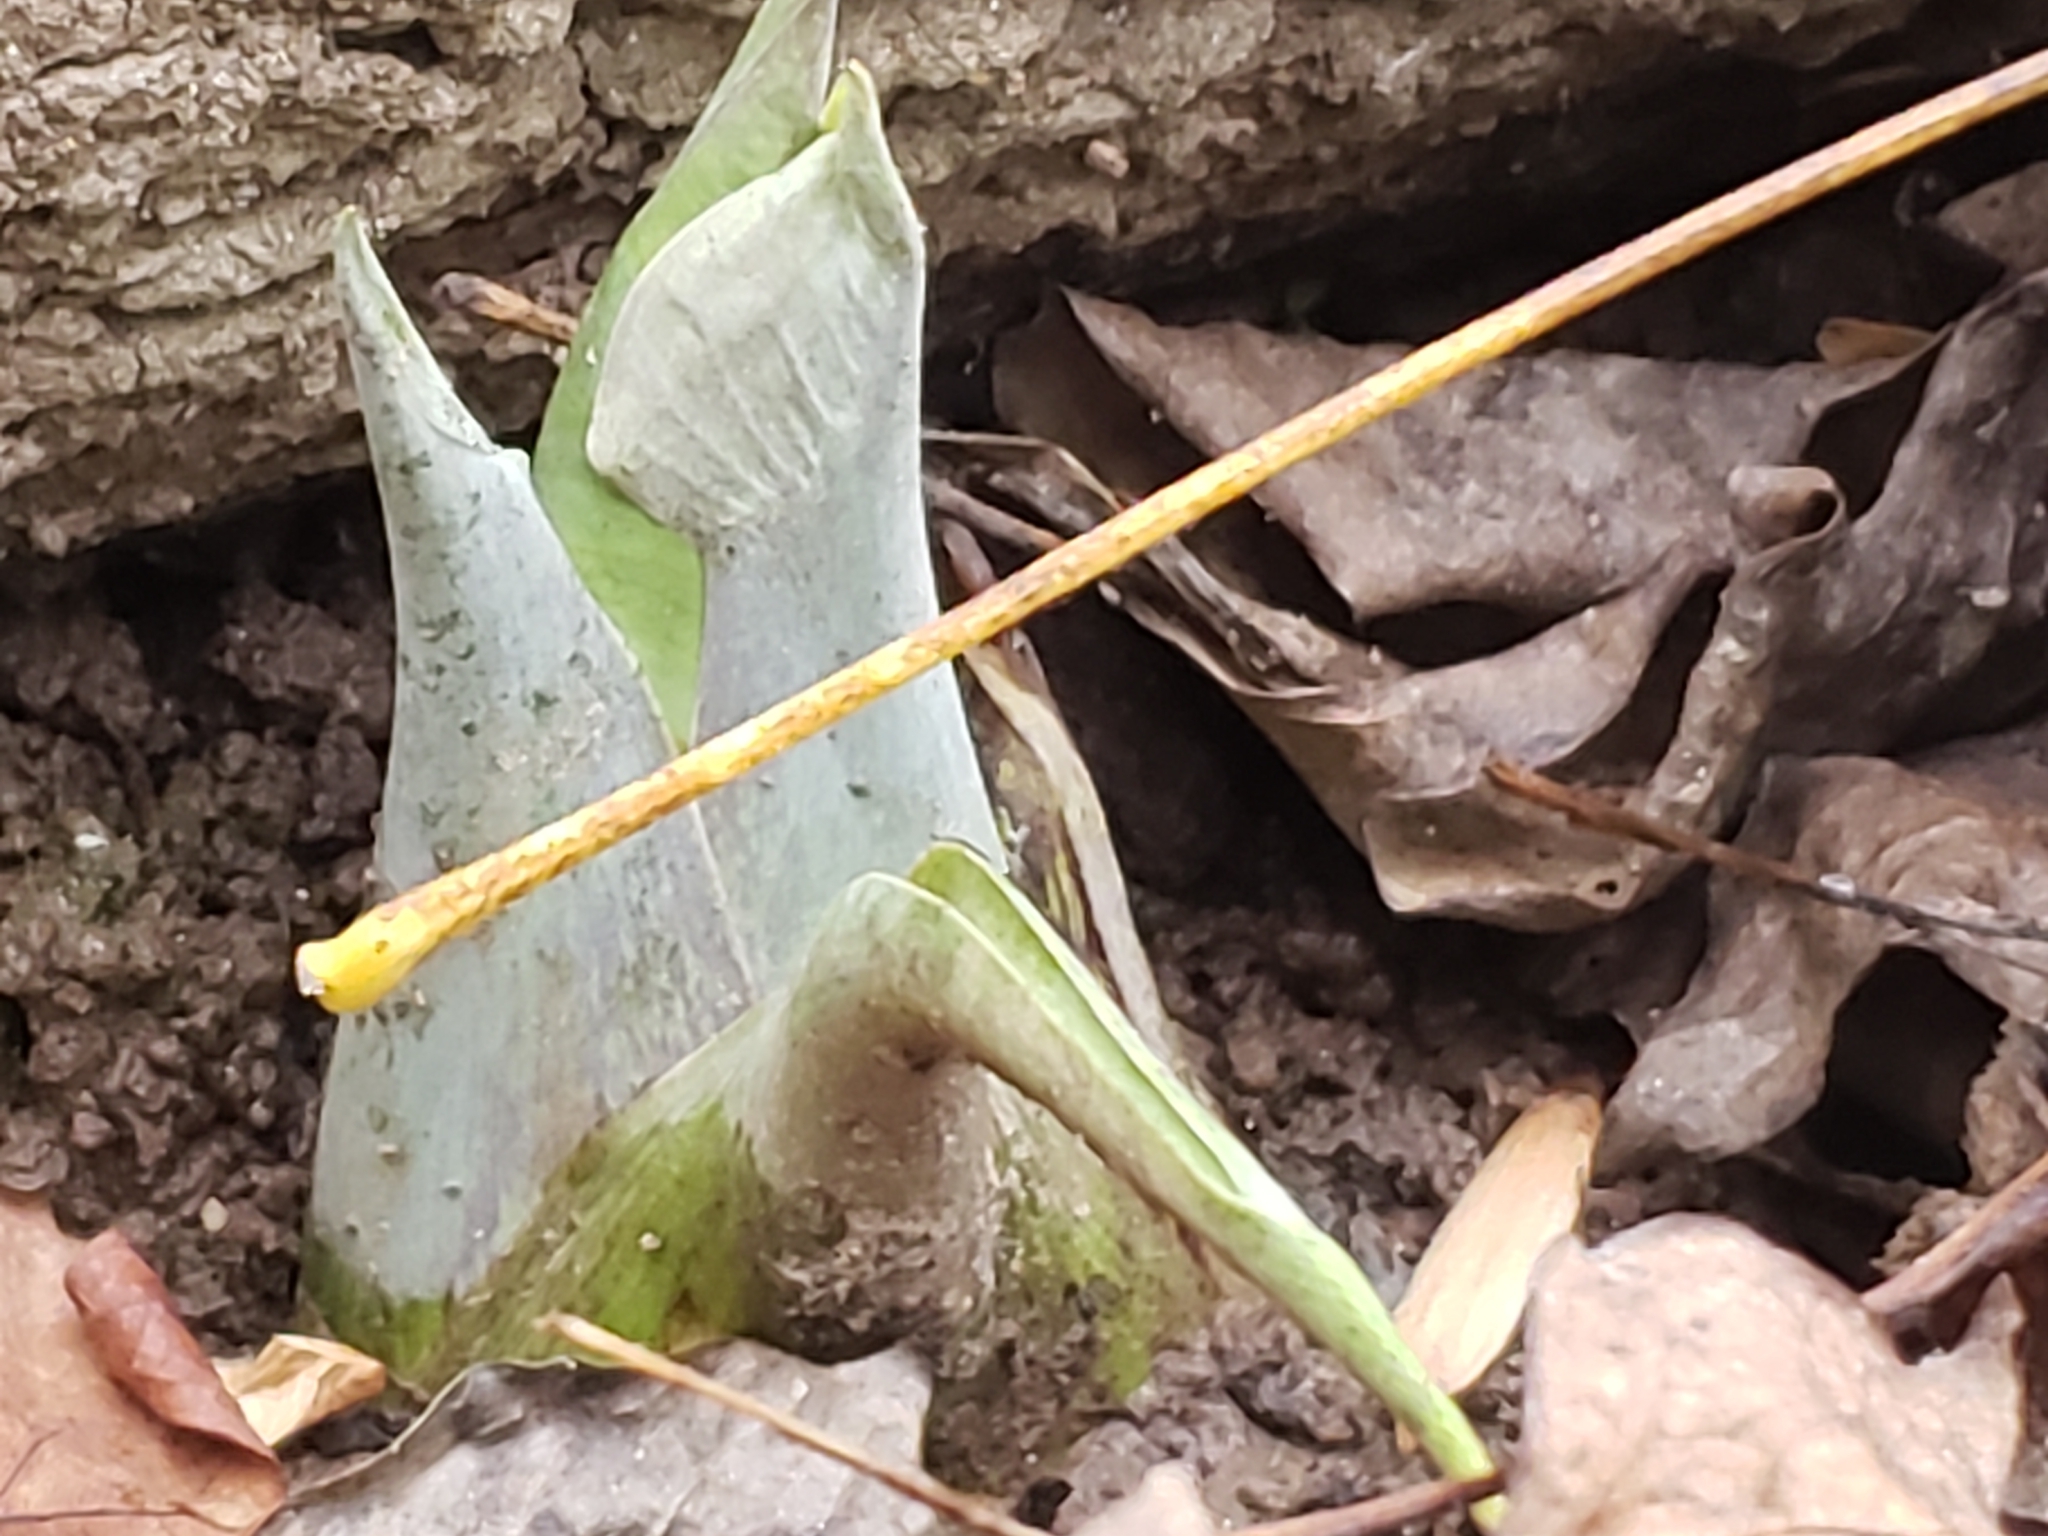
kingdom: Plantae
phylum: Tracheophyta
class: Liliopsida
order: Alismatales
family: Araceae
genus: Symplocarpus
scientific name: Symplocarpus foetidus
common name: Eastern skunk cabbage
